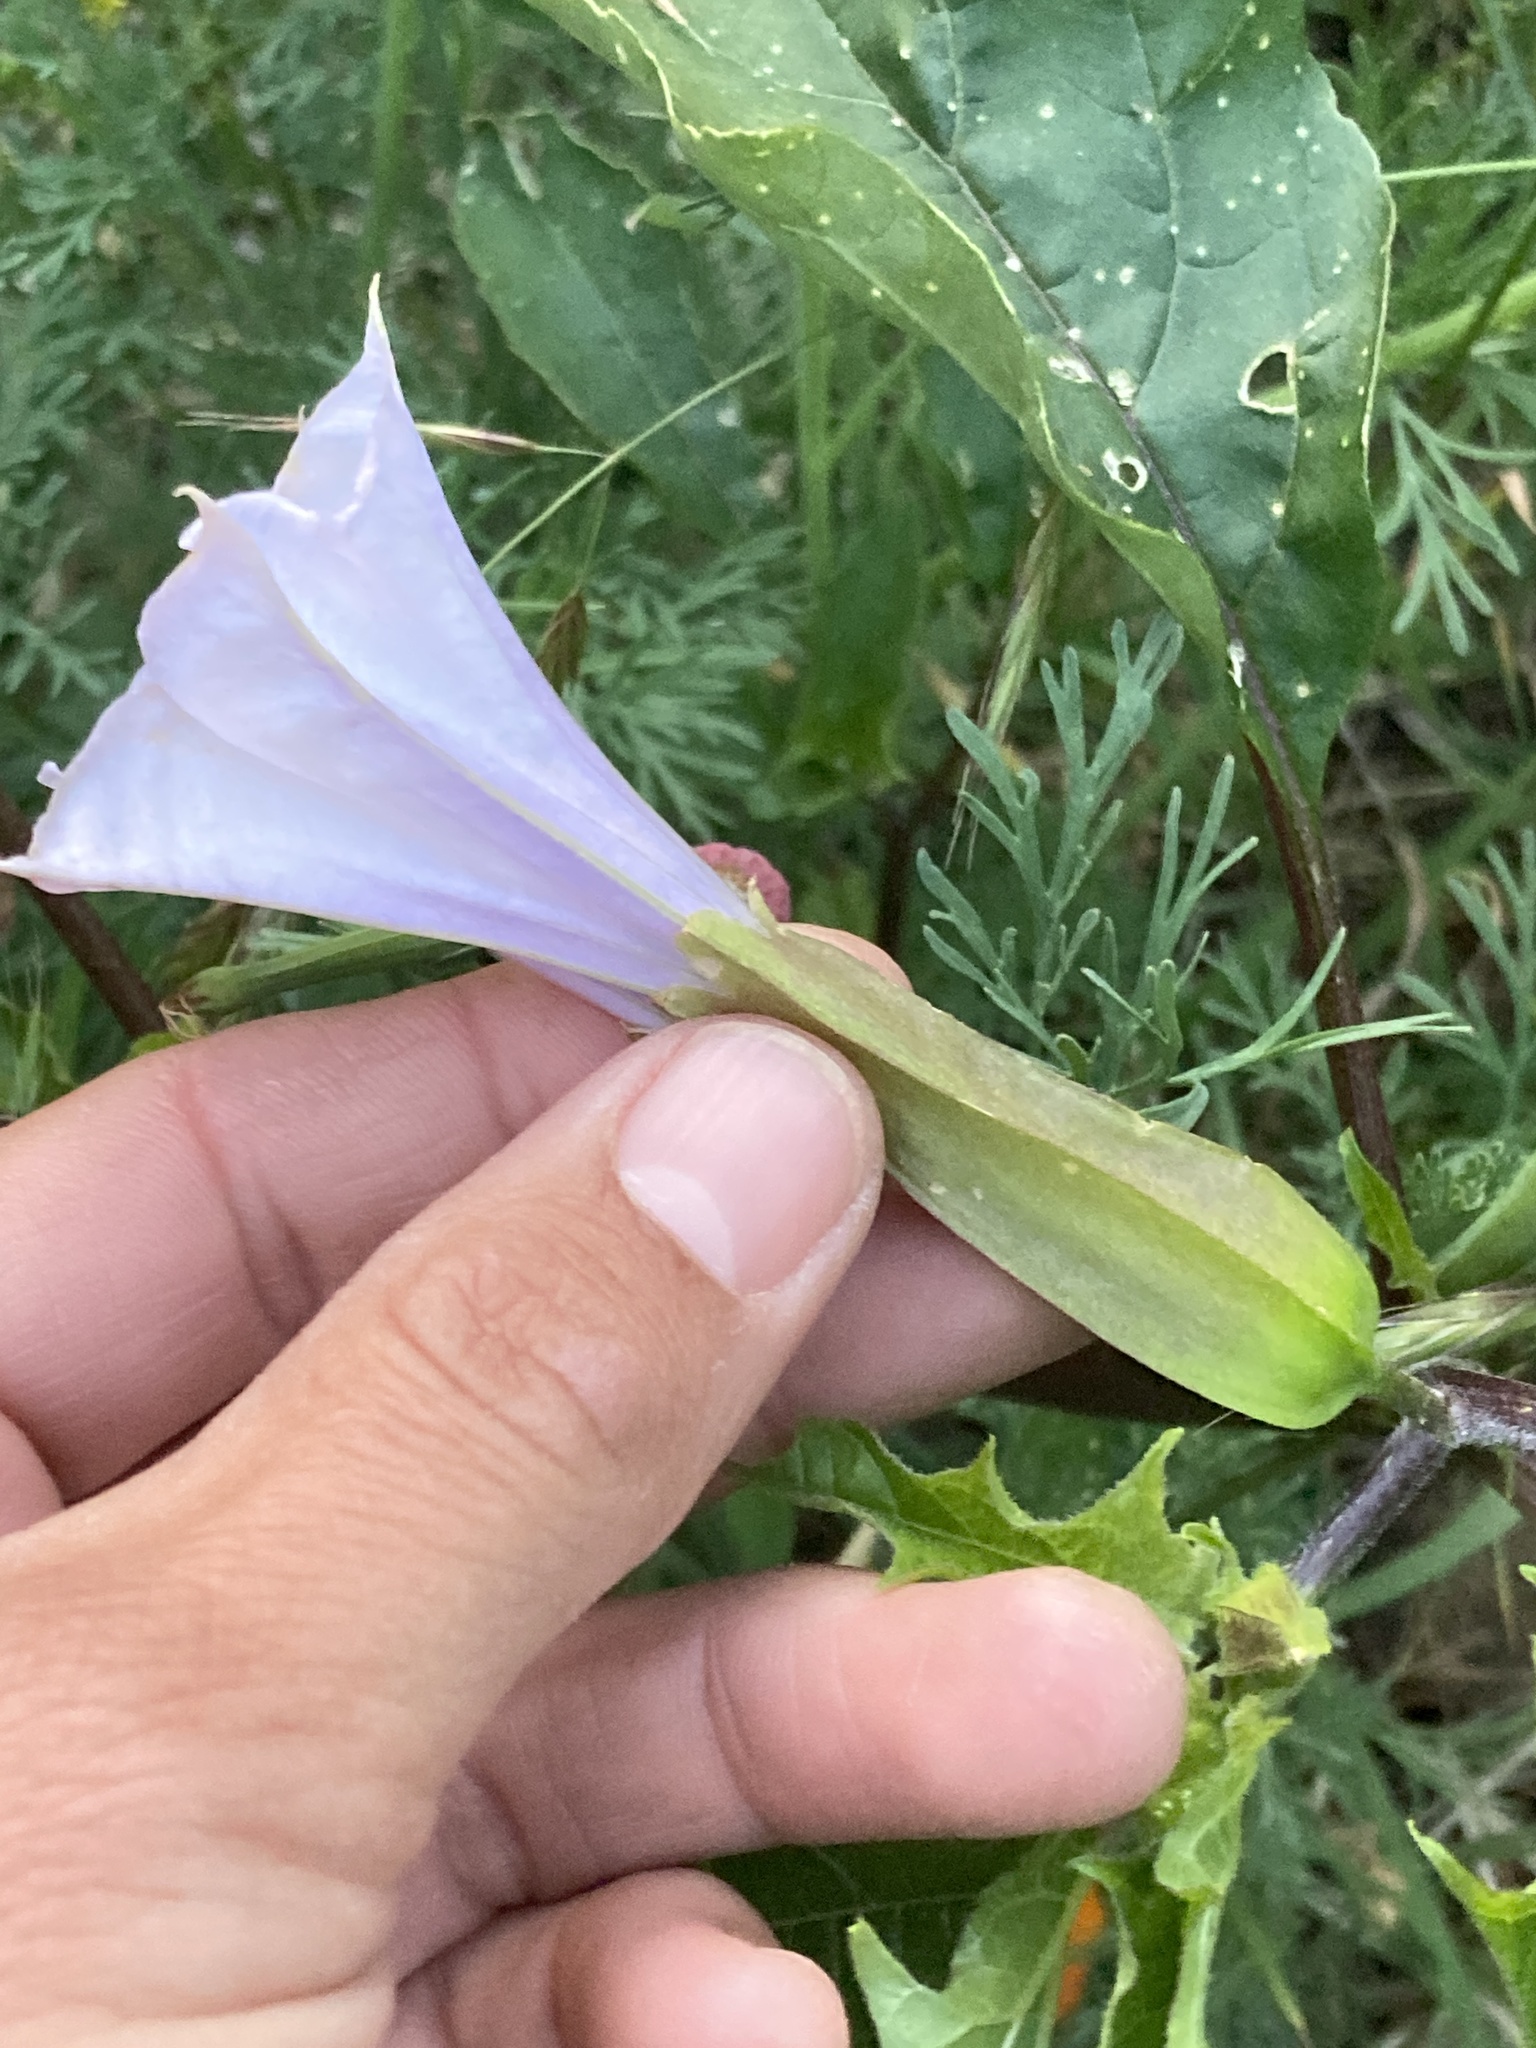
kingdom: Plantae
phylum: Tracheophyta
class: Magnoliopsida
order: Solanales
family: Solanaceae
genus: Datura
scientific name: Datura stramonium
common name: Thorn-apple
